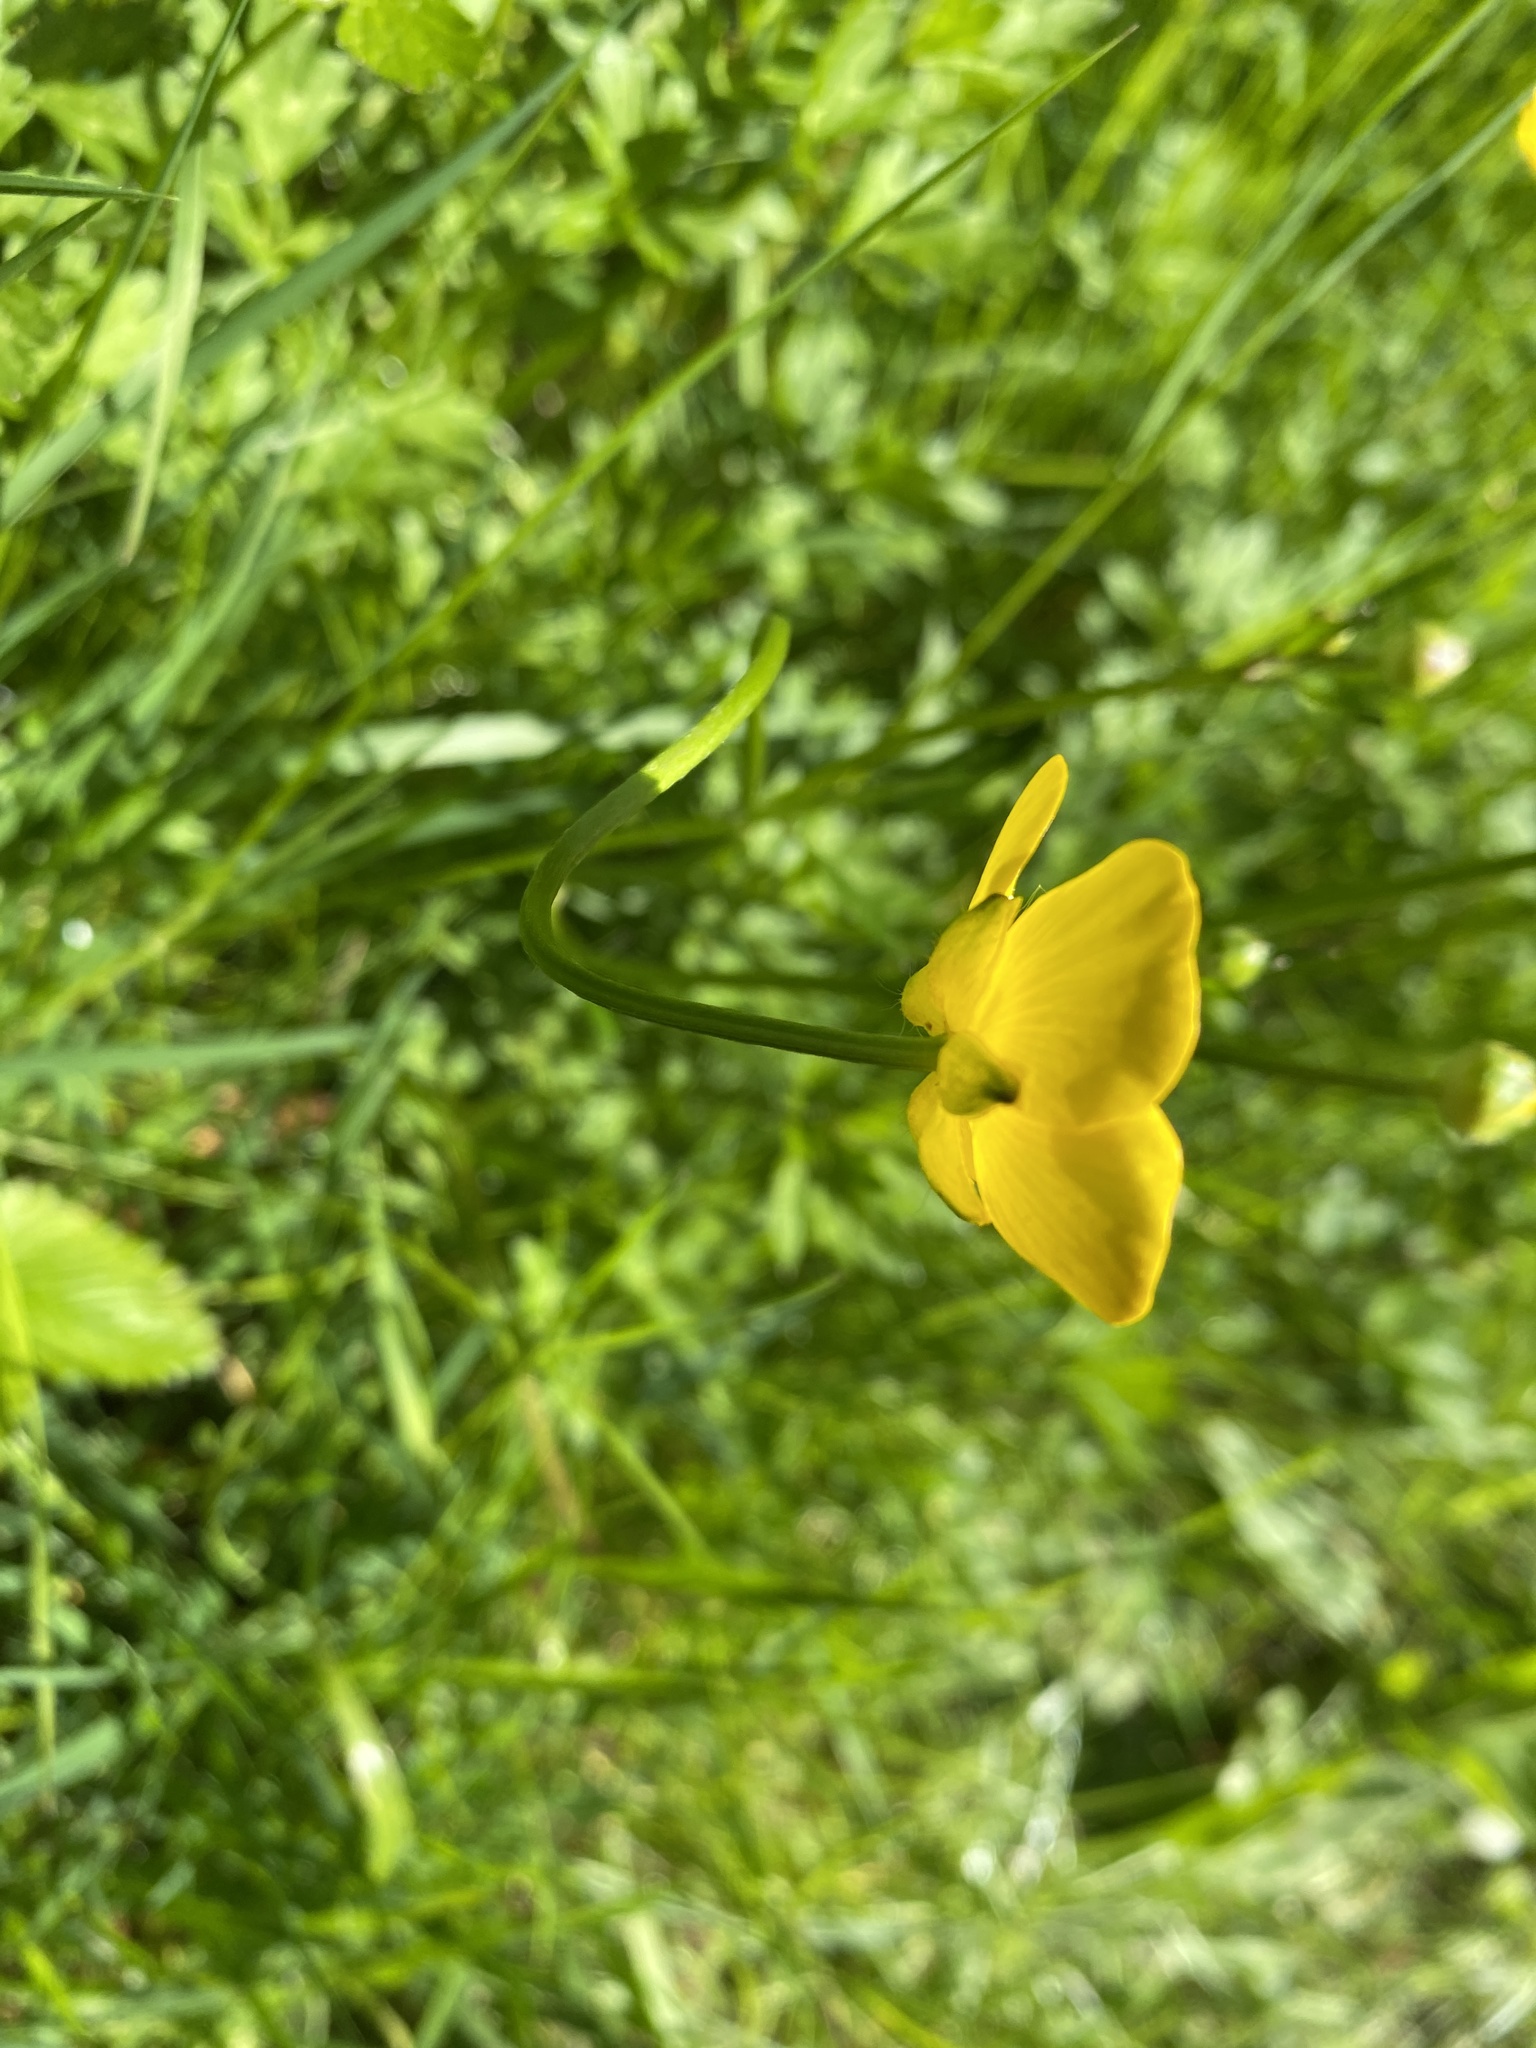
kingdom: Plantae
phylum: Tracheophyta
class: Magnoliopsida
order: Ranunculales
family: Ranunculaceae
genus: Ranunculus
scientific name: Ranunculus repens
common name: Creeping buttercup
